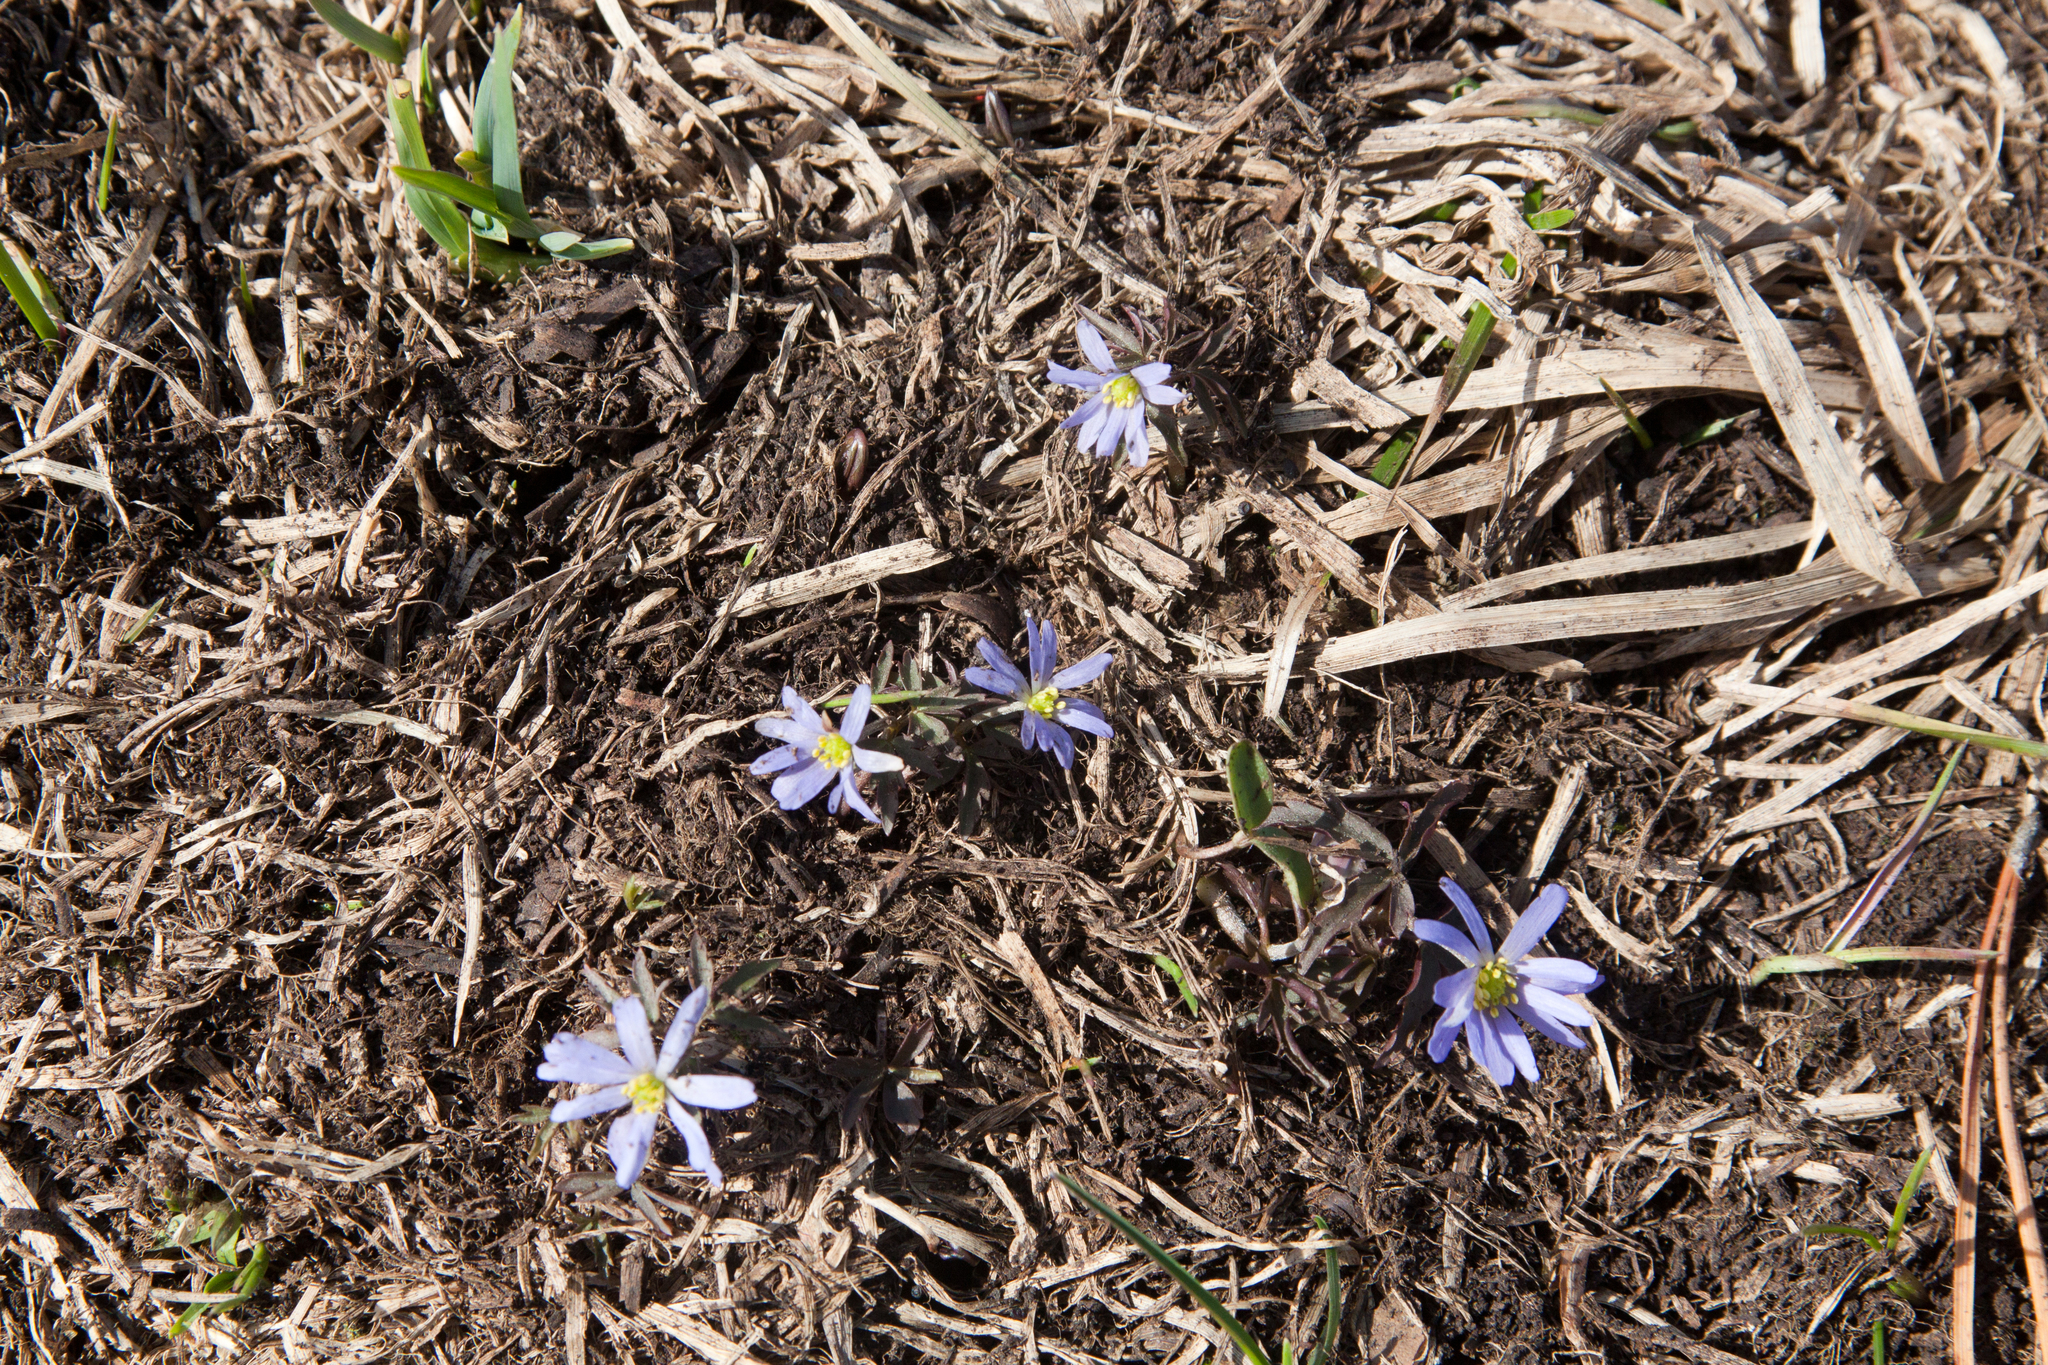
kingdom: Plantae
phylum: Tracheophyta
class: Magnoliopsida
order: Ranunculales
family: Ranunculaceae
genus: Anemone
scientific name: Anemone caucasica
